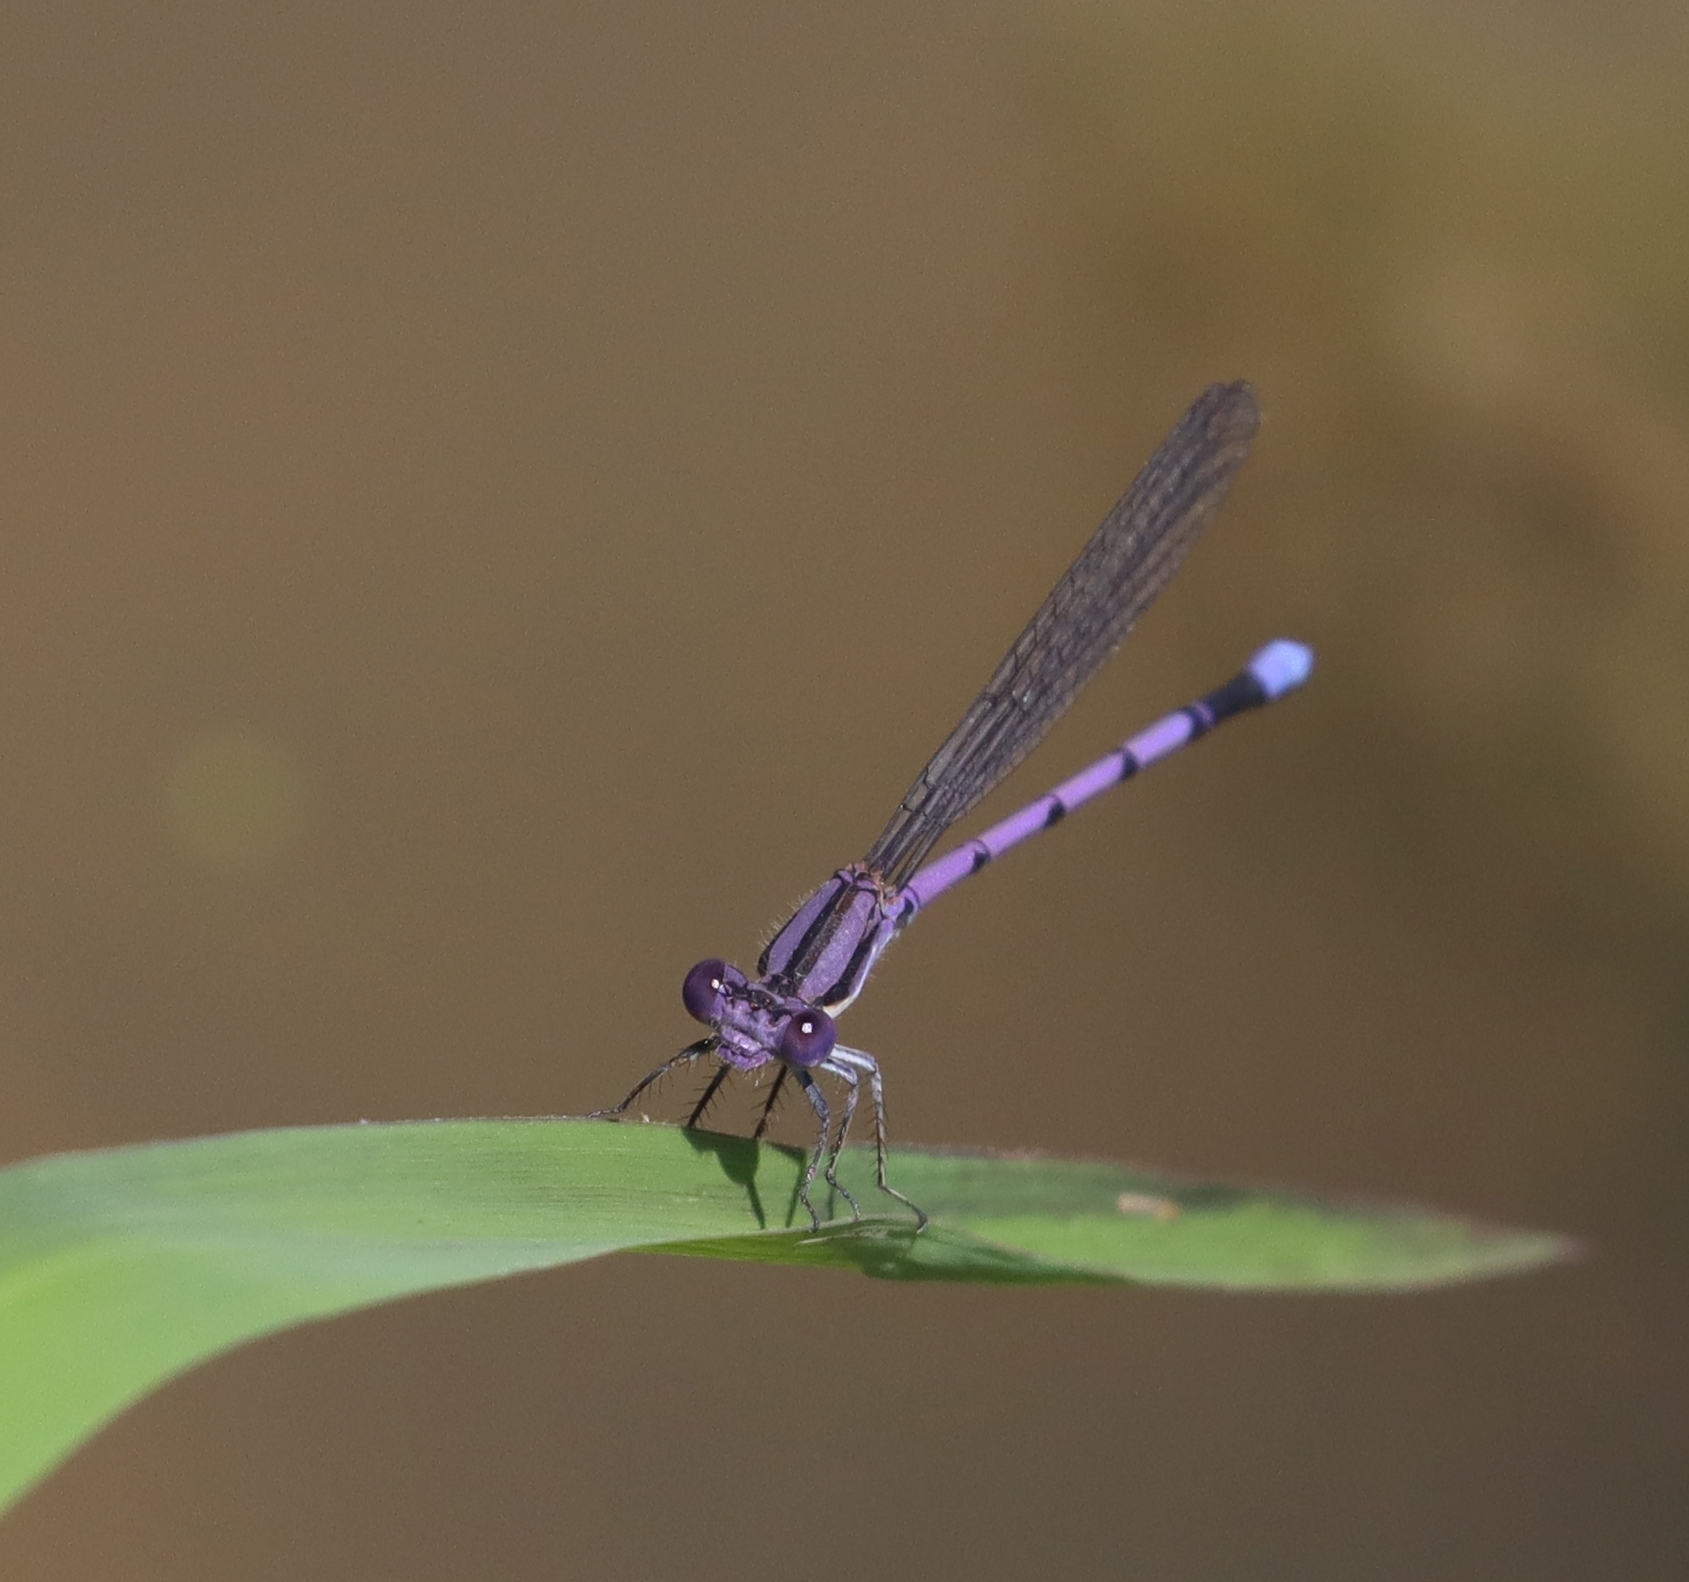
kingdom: Animalia
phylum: Arthropoda
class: Insecta
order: Odonata
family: Coenagrionidae
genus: Argia
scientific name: Argia fumipennis
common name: Variable dancer
